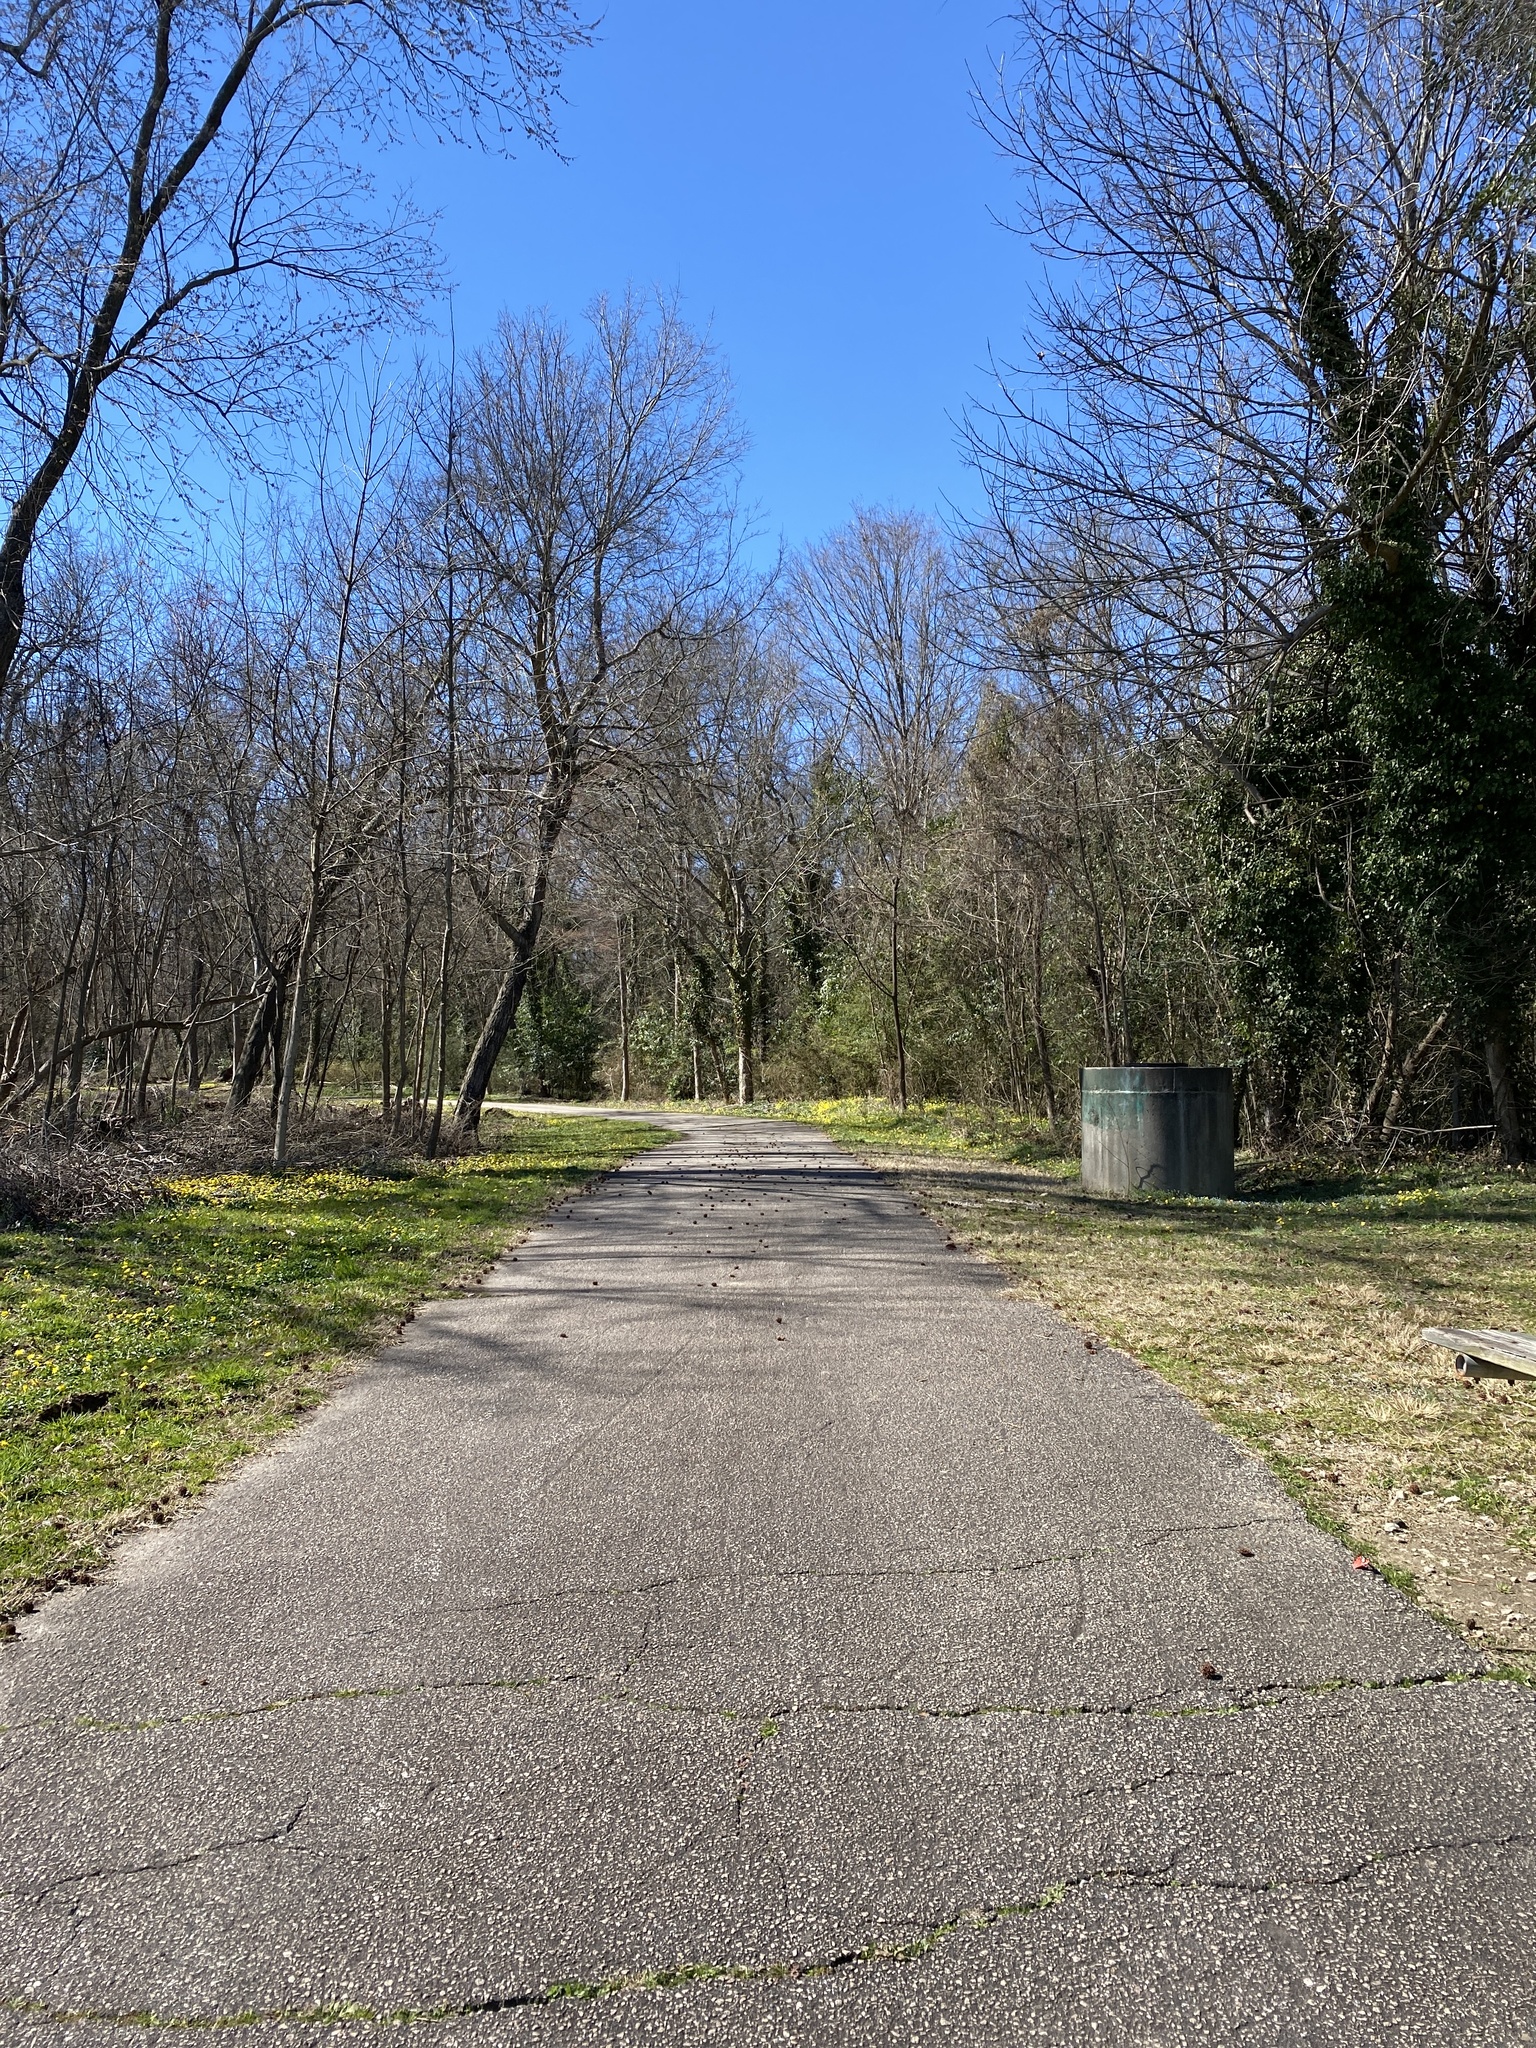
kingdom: Plantae
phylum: Tracheophyta
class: Magnoliopsida
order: Ranunculales
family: Ranunculaceae
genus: Ficaria
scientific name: Ficaria verna
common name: Lesser celandine
